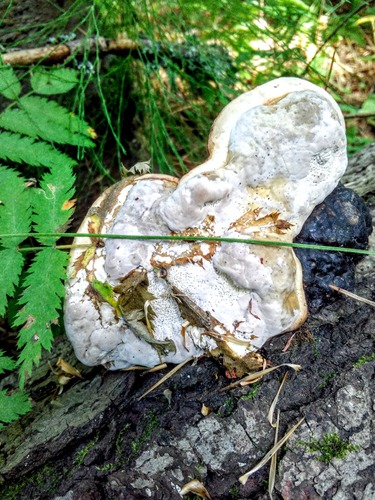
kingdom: Fungi
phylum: Basidiomycota
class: Agaricomycetes
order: Polyporales
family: Polyporaceae
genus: Fomes
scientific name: Fomes fomentarius
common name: Hoof fungus
